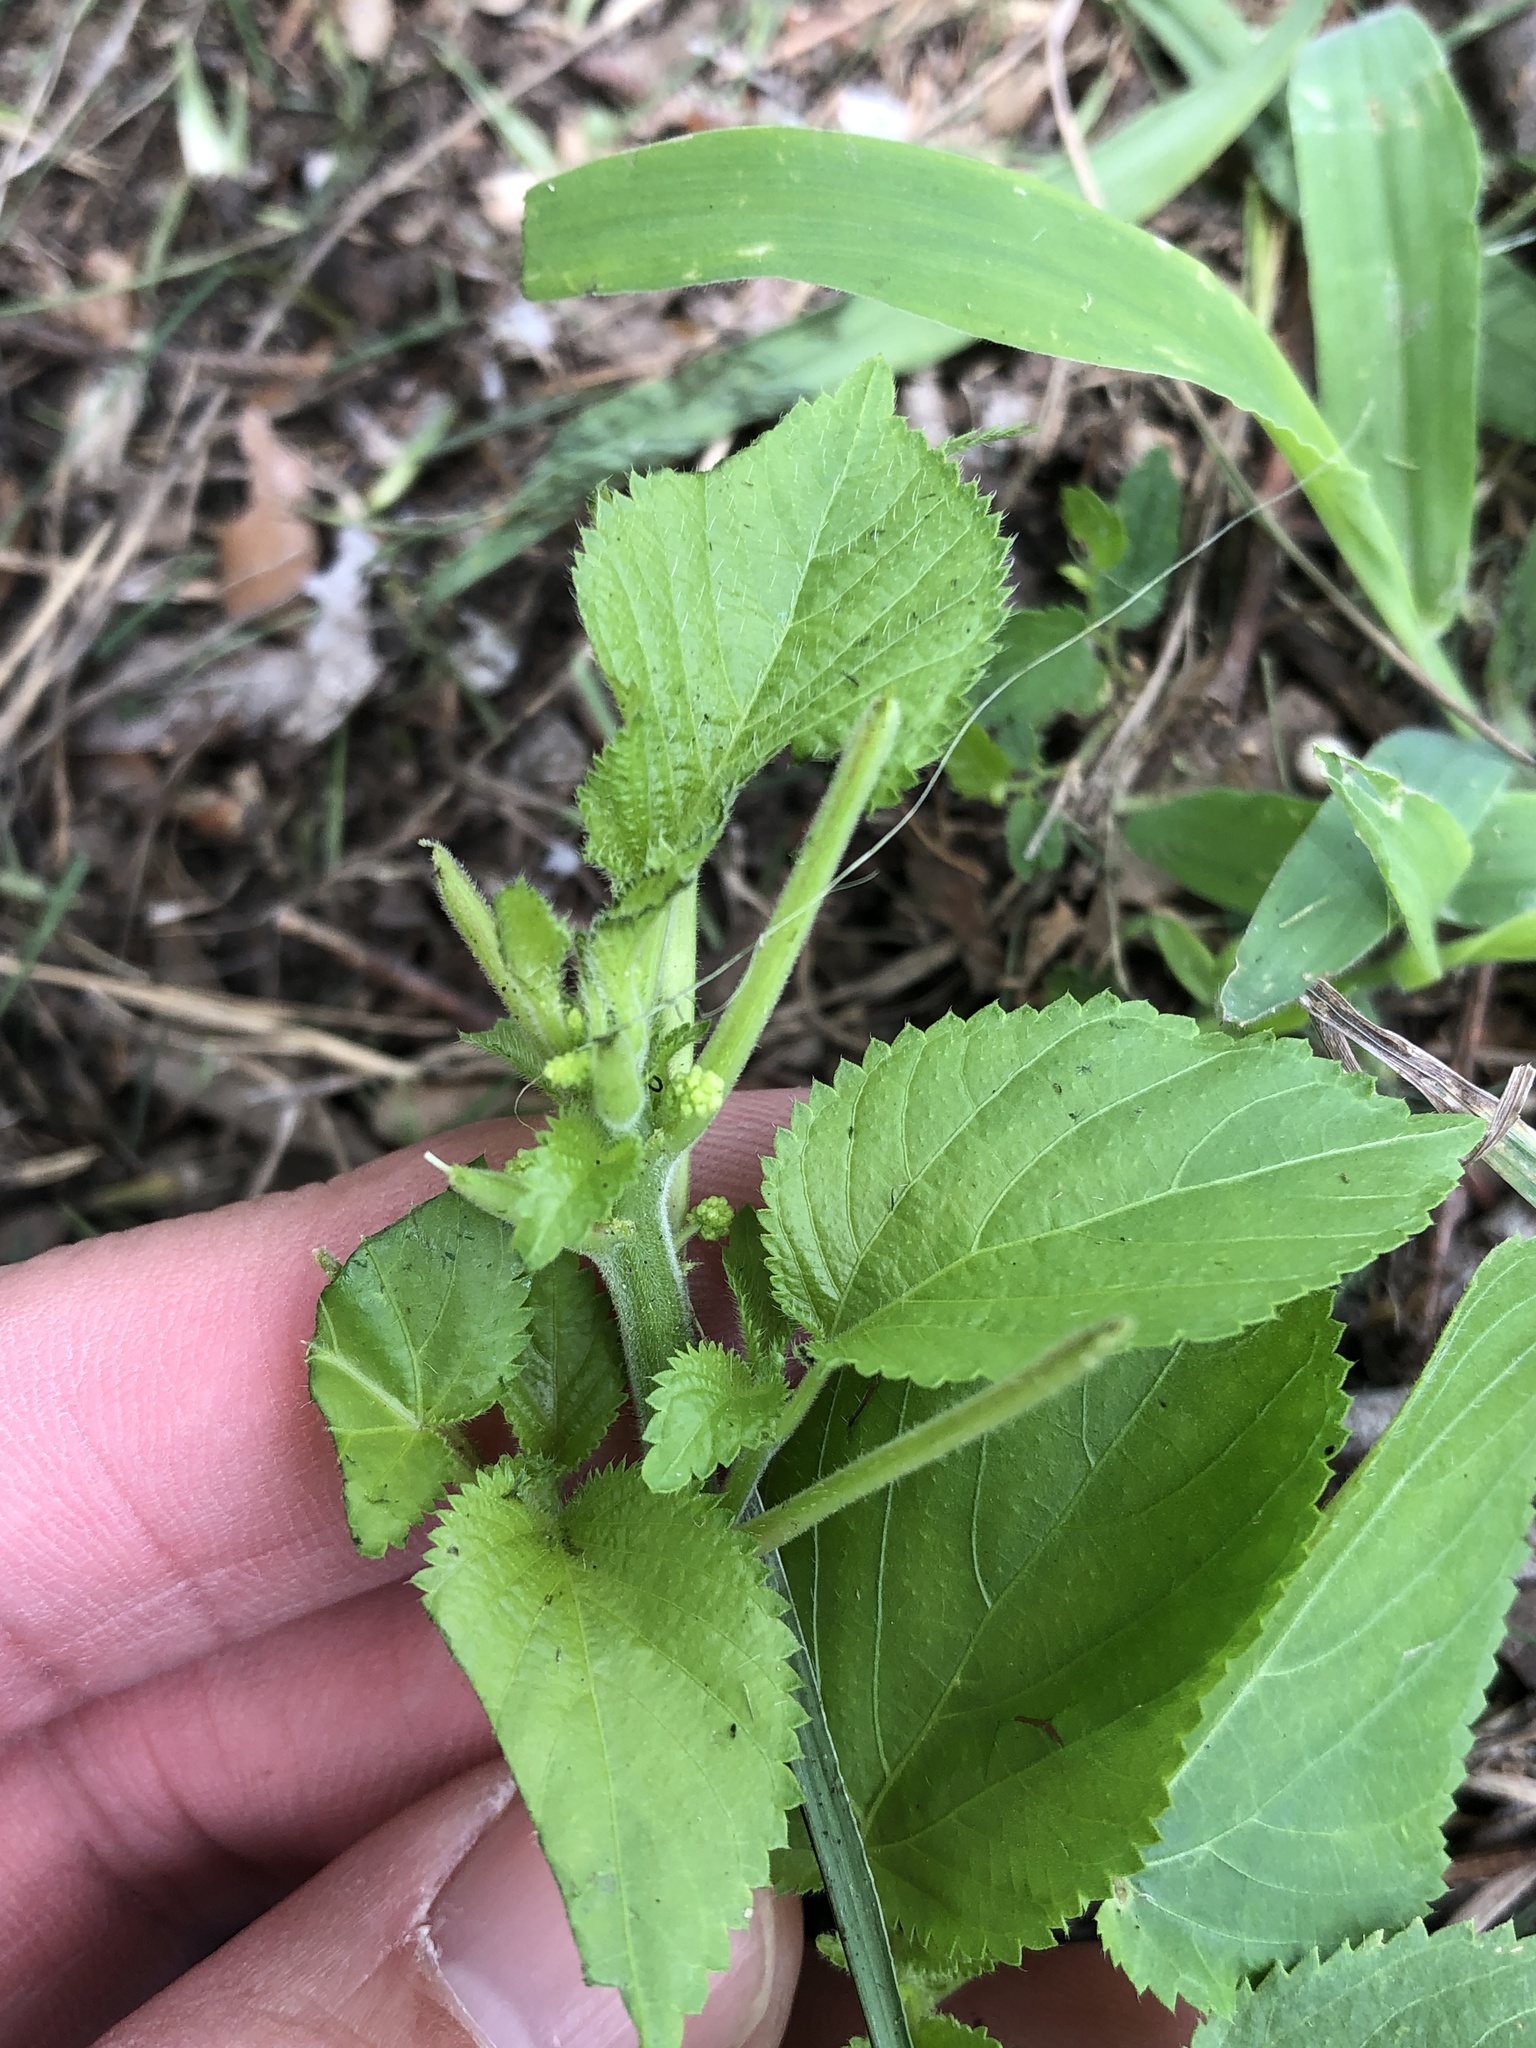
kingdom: Plantae
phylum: Tracheophyta
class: Magnoliopsida
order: Malpighiales
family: Euphorbiaceae
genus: Acalypha
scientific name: Acalypha ostryifolia
